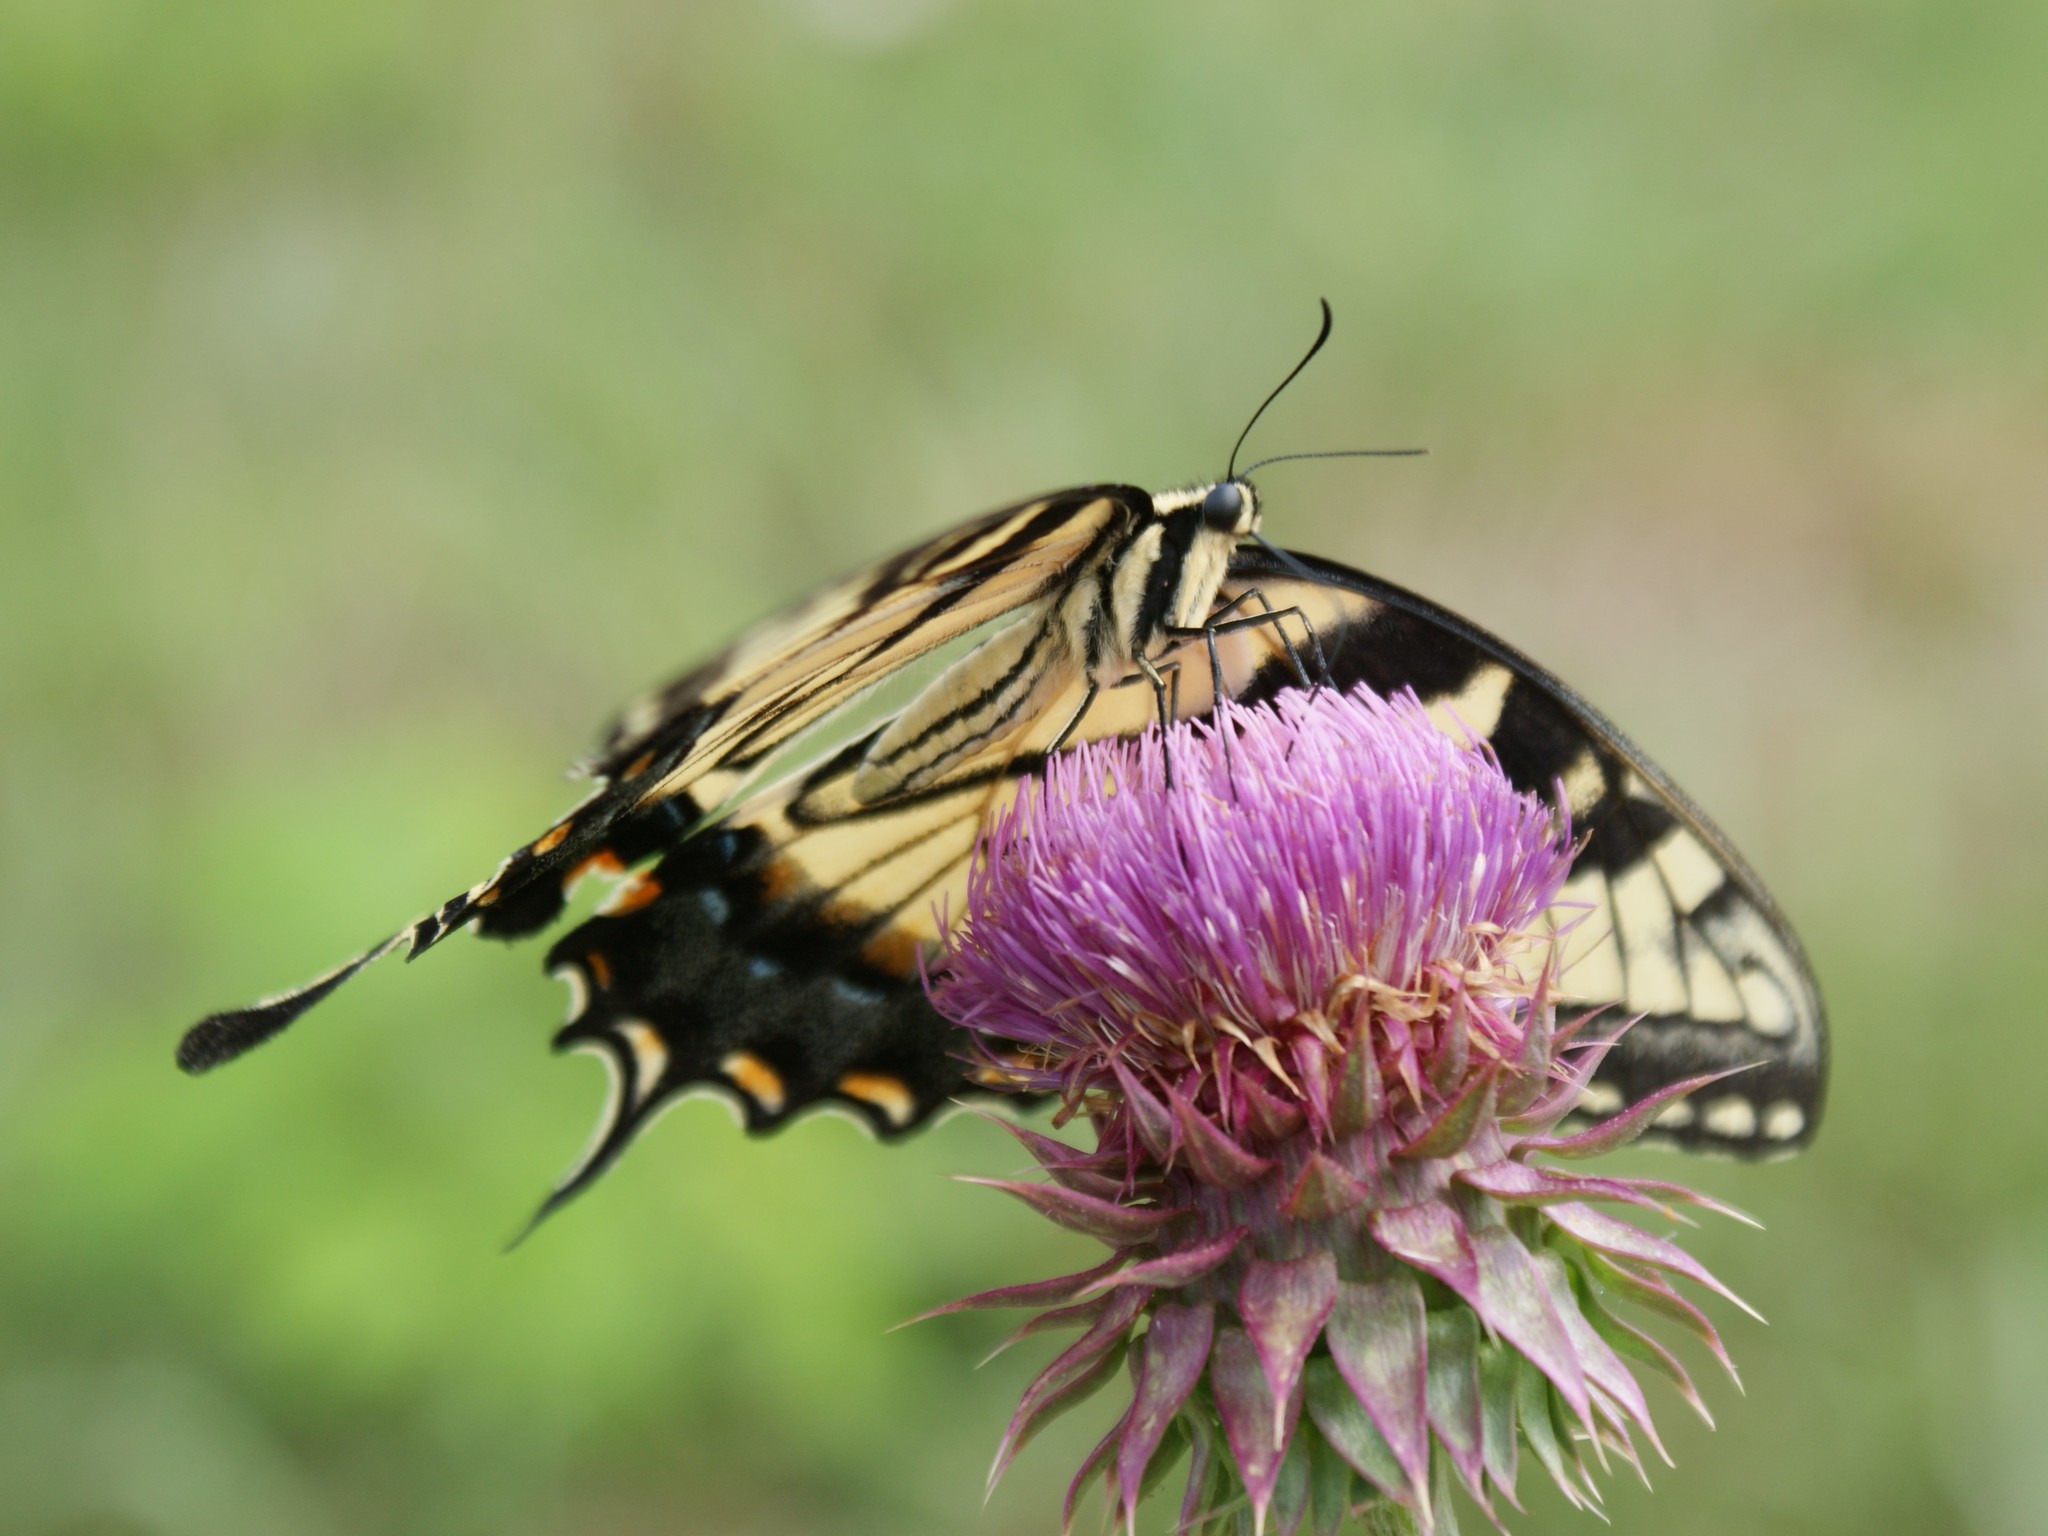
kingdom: Animalia
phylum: Arthropoda
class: Insecta
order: Lepidoptera
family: Papilionidae
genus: Papilio
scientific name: Papilio glaucus
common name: Tiger swallowtail
